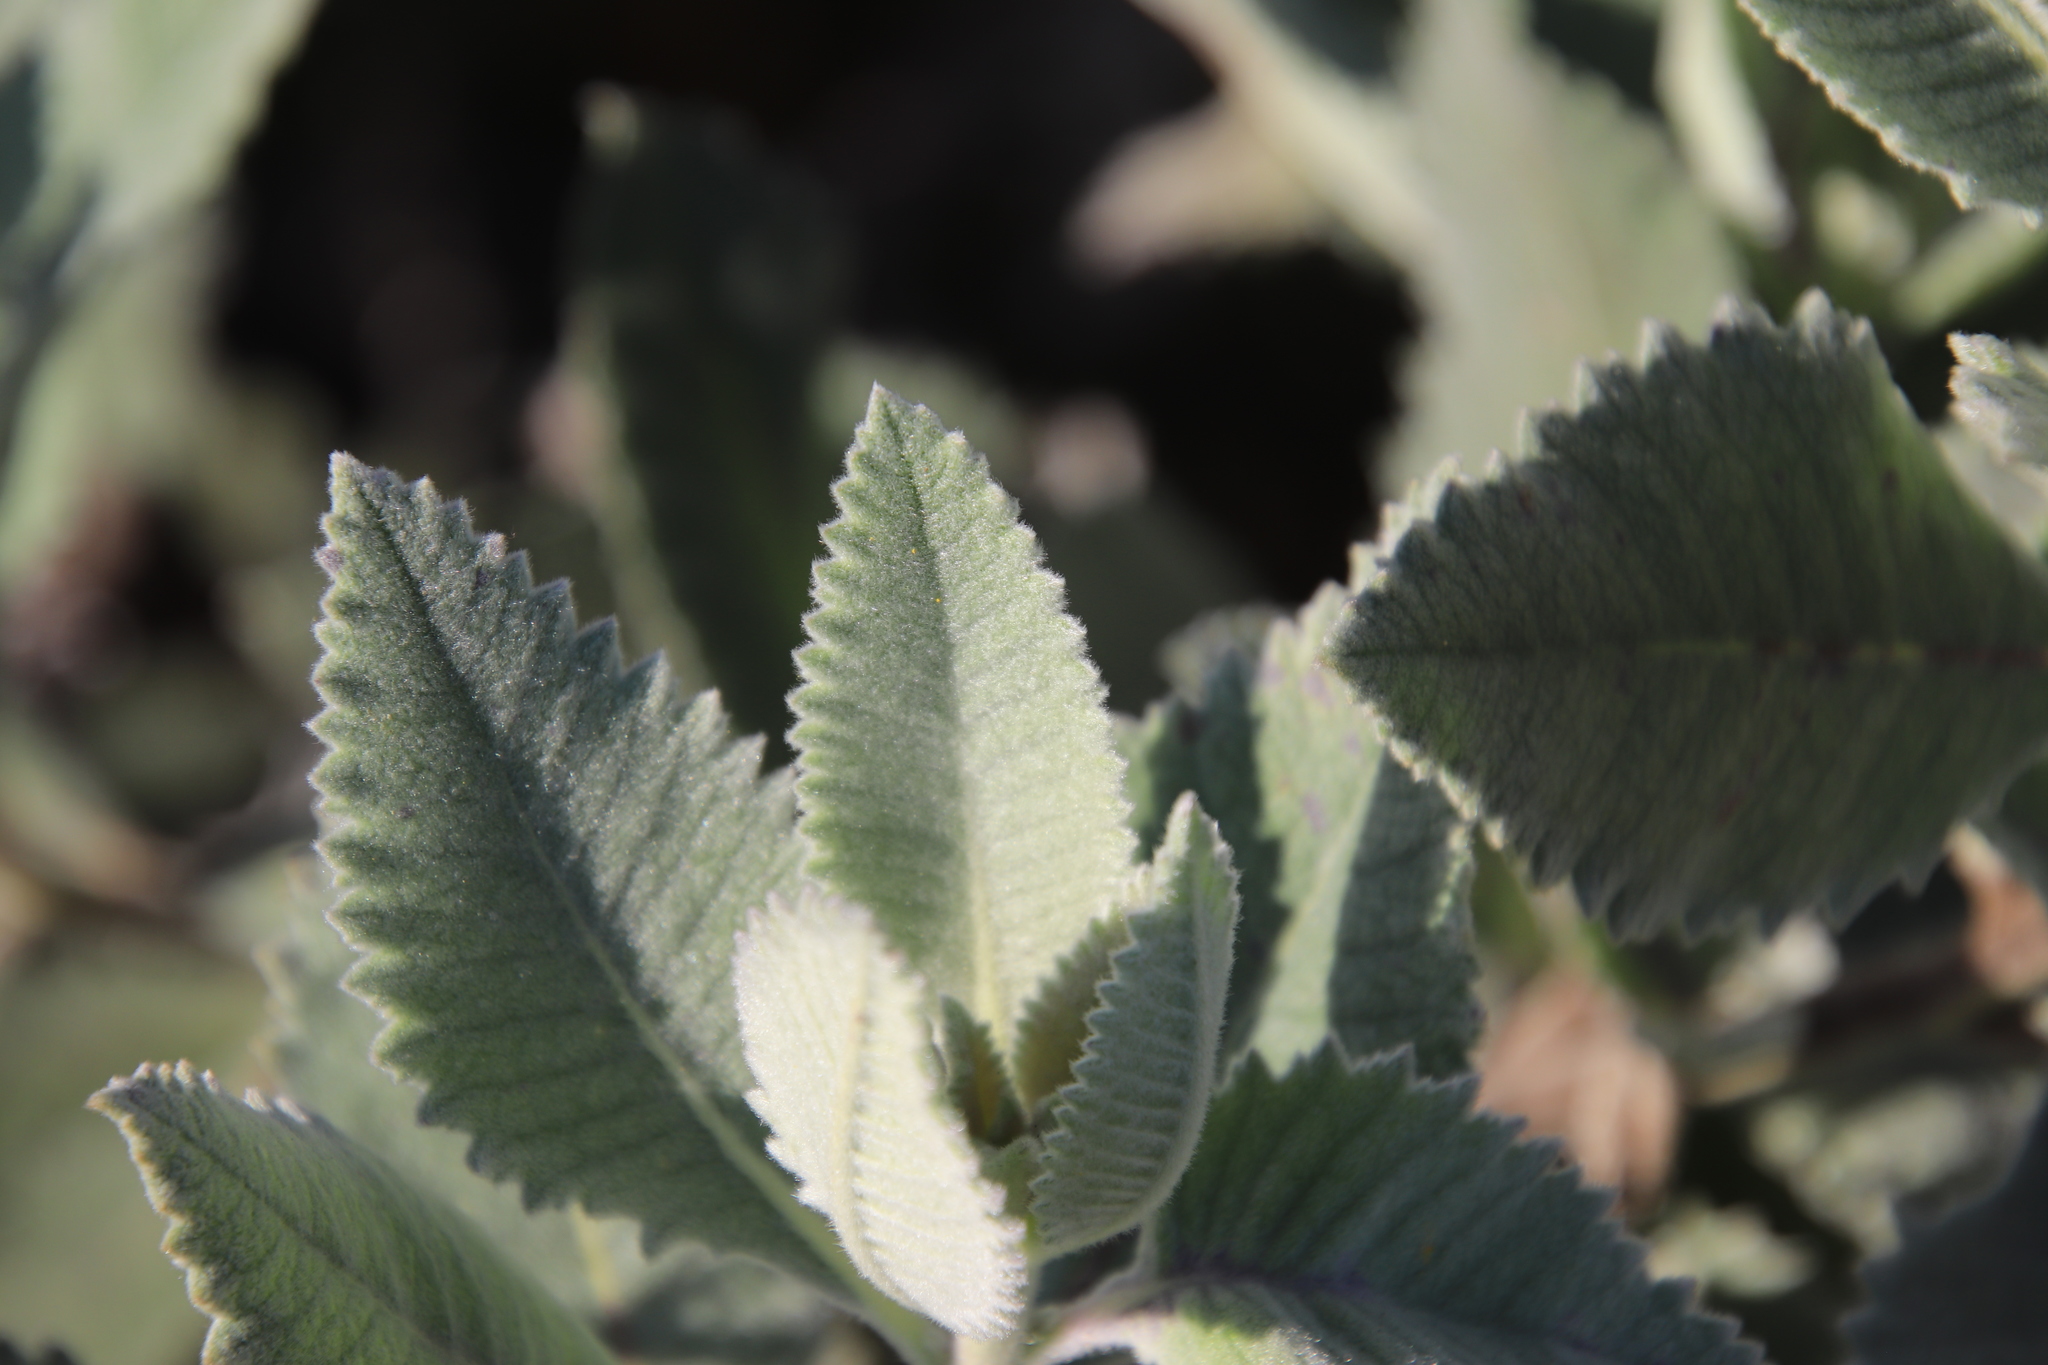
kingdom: Plantae
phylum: Tracheophyta
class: Magnoliopsida
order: Boraginales
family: Namaceae
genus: Eriodictyon
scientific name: Eriodictyon crassifolium
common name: Thick-leaf yerba-santa
